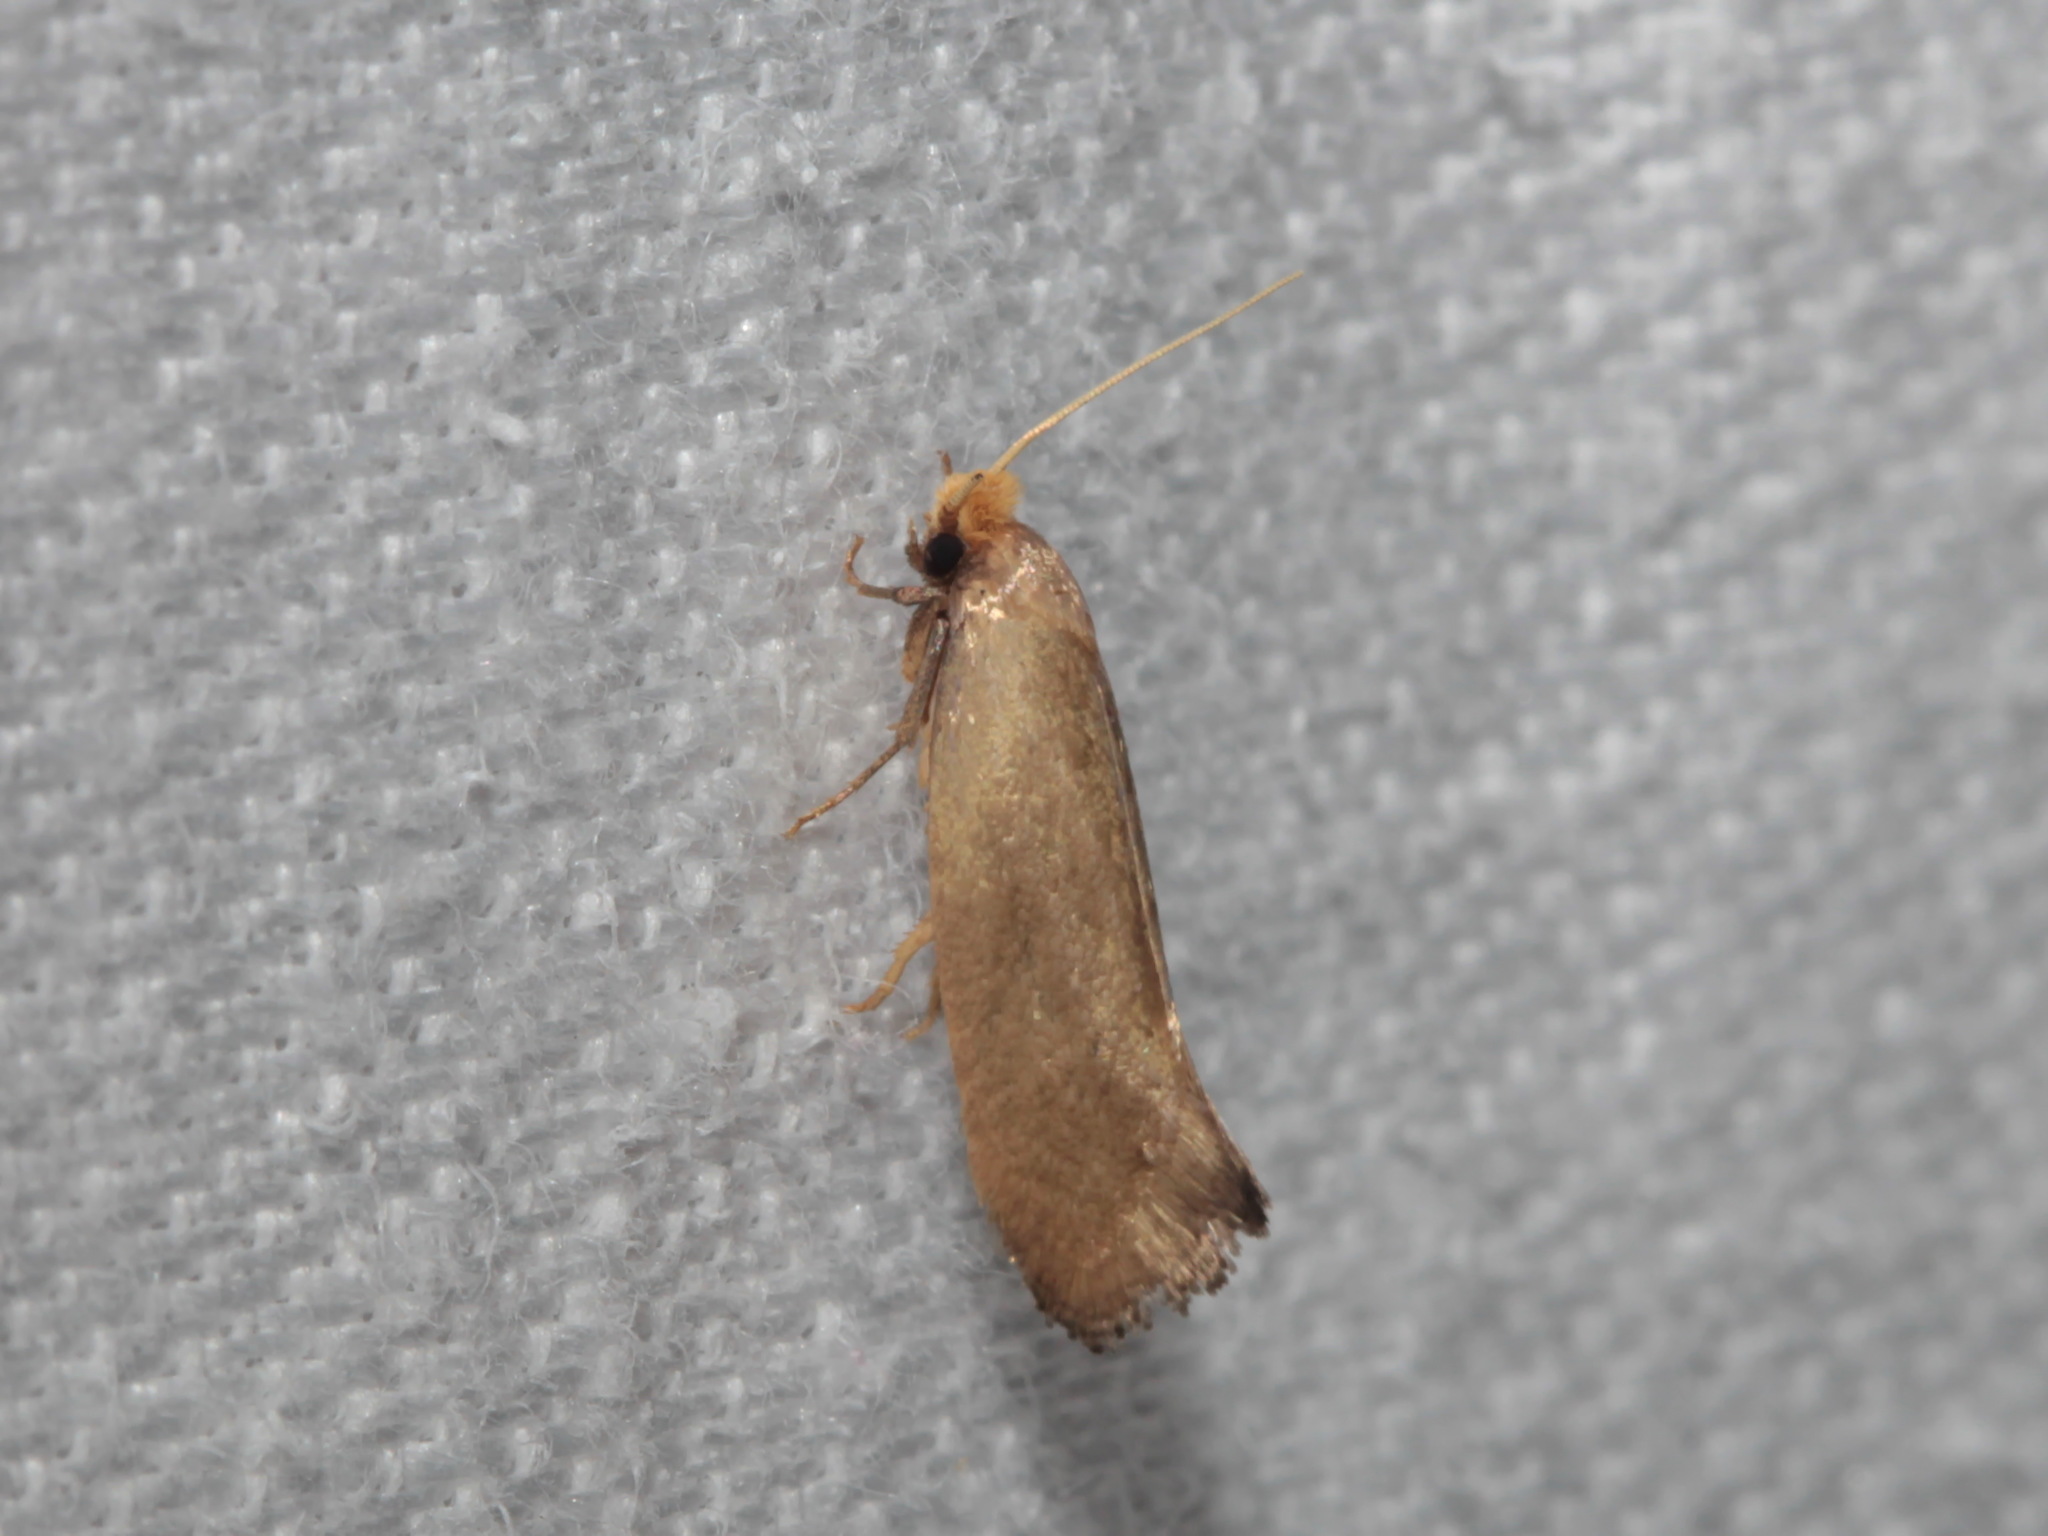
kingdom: Animalia
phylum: Arthropoda
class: Insecta
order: Lepidoptera
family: Tineidae
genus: Edosa
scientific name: Edosa varians
